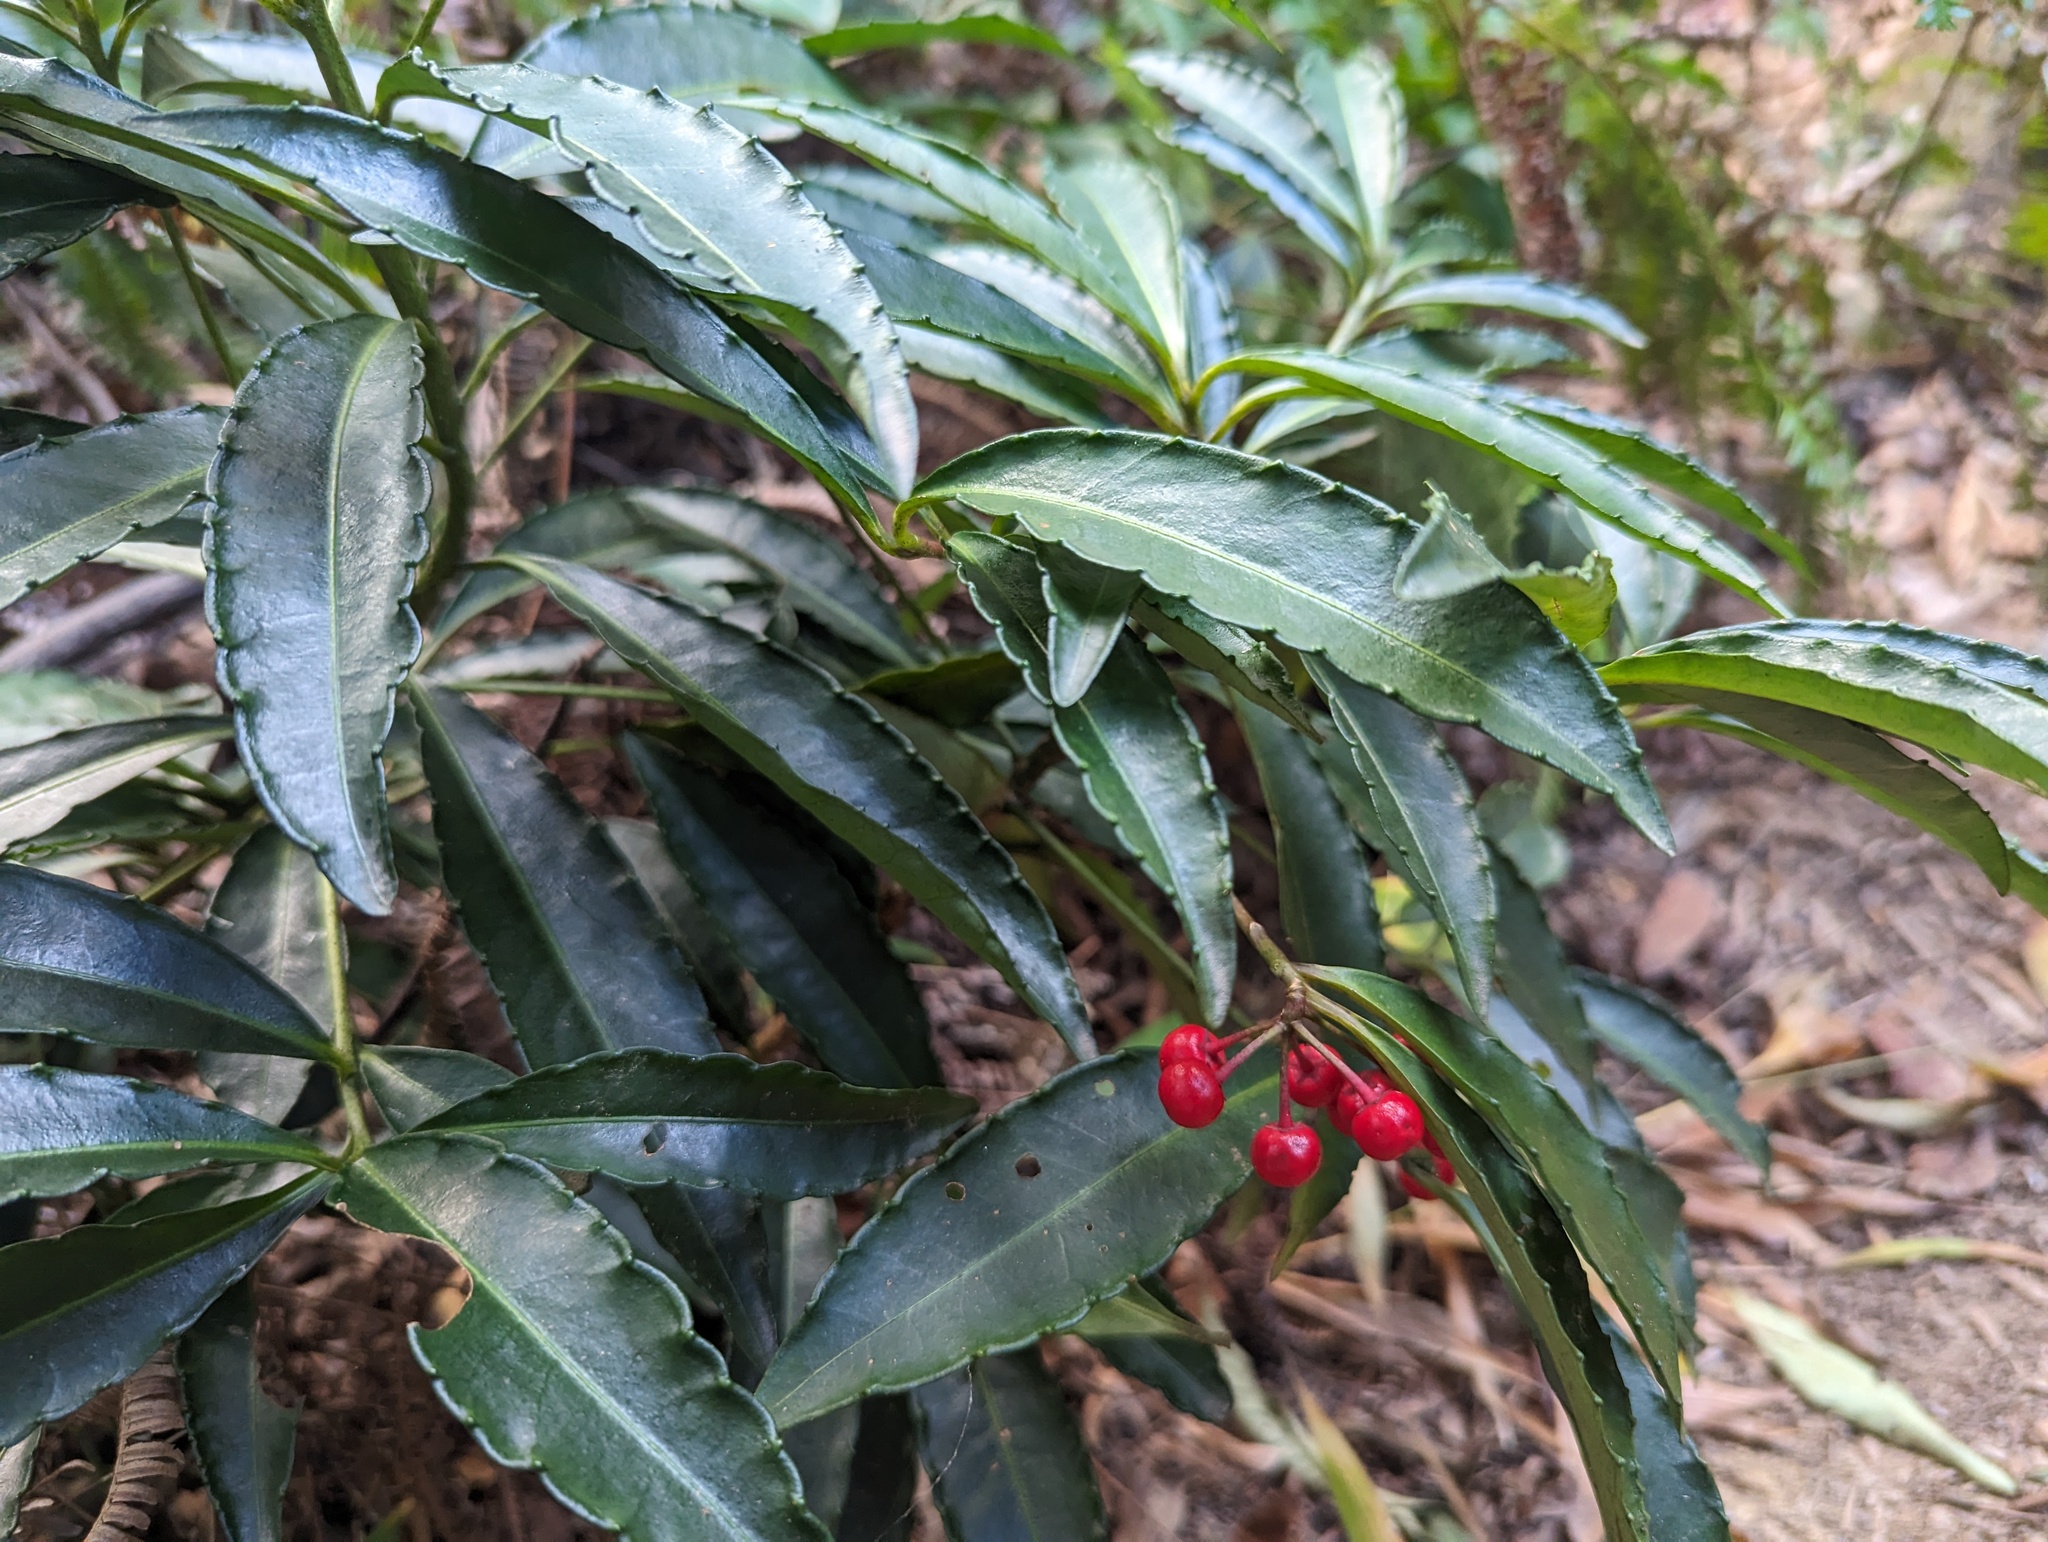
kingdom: Plantae
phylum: Tracheophyta
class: Magnoliopsida
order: Ericales
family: Primulaceae
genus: Ardisia
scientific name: Ardisia crenata
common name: Hen's eyes
